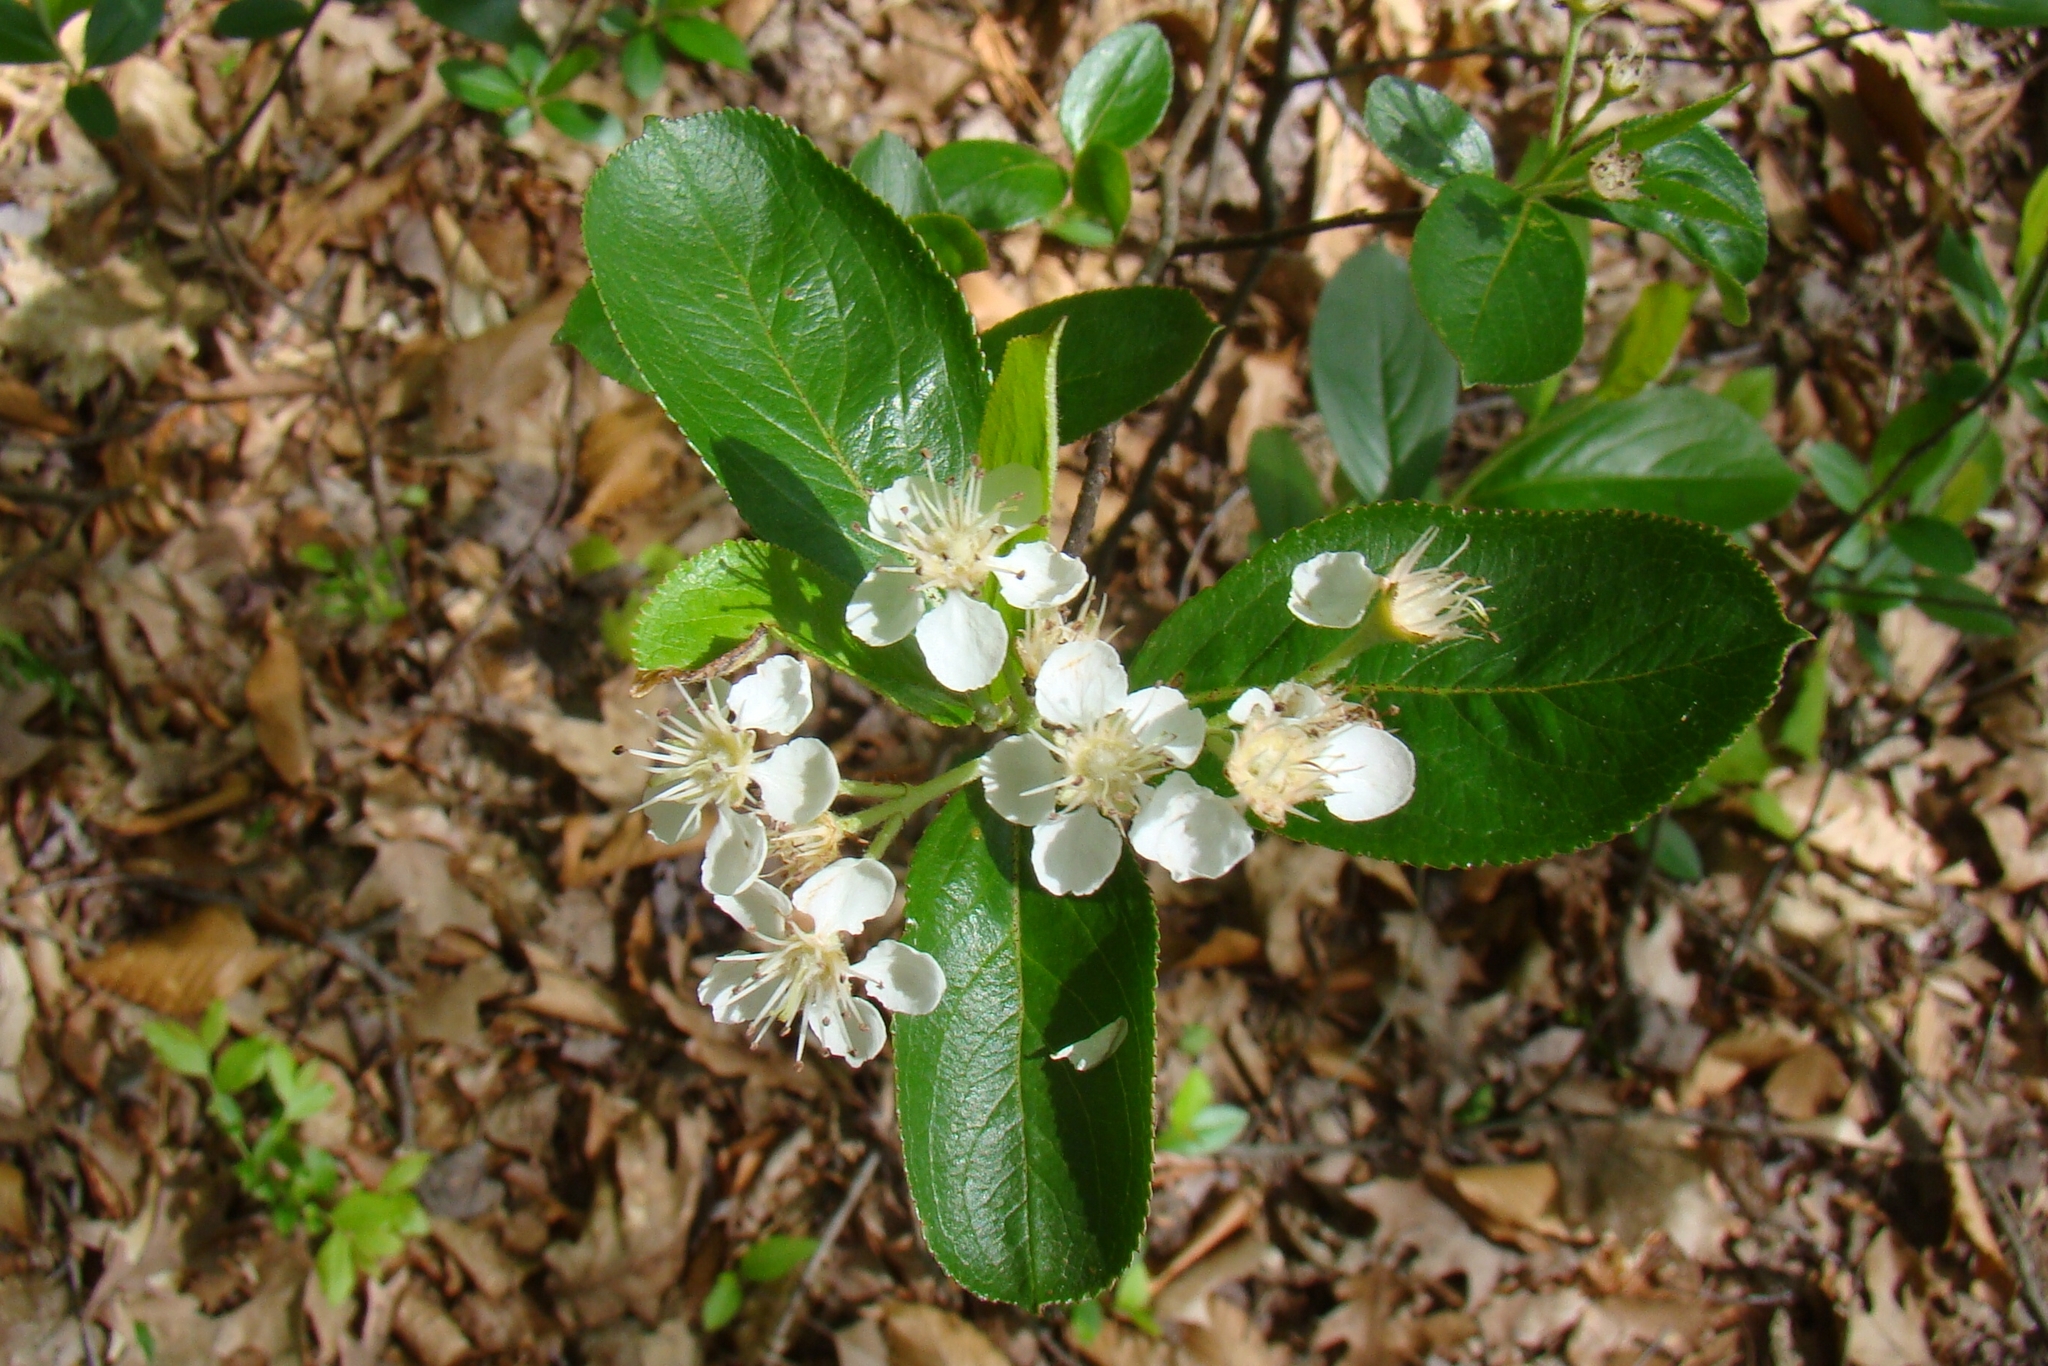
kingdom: Plantae
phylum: Tracheophyta
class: Magnoliopsida
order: Rosales
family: Rosaceae
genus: Aronia
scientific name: Aronia melanocarpa
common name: Black chokeberry
